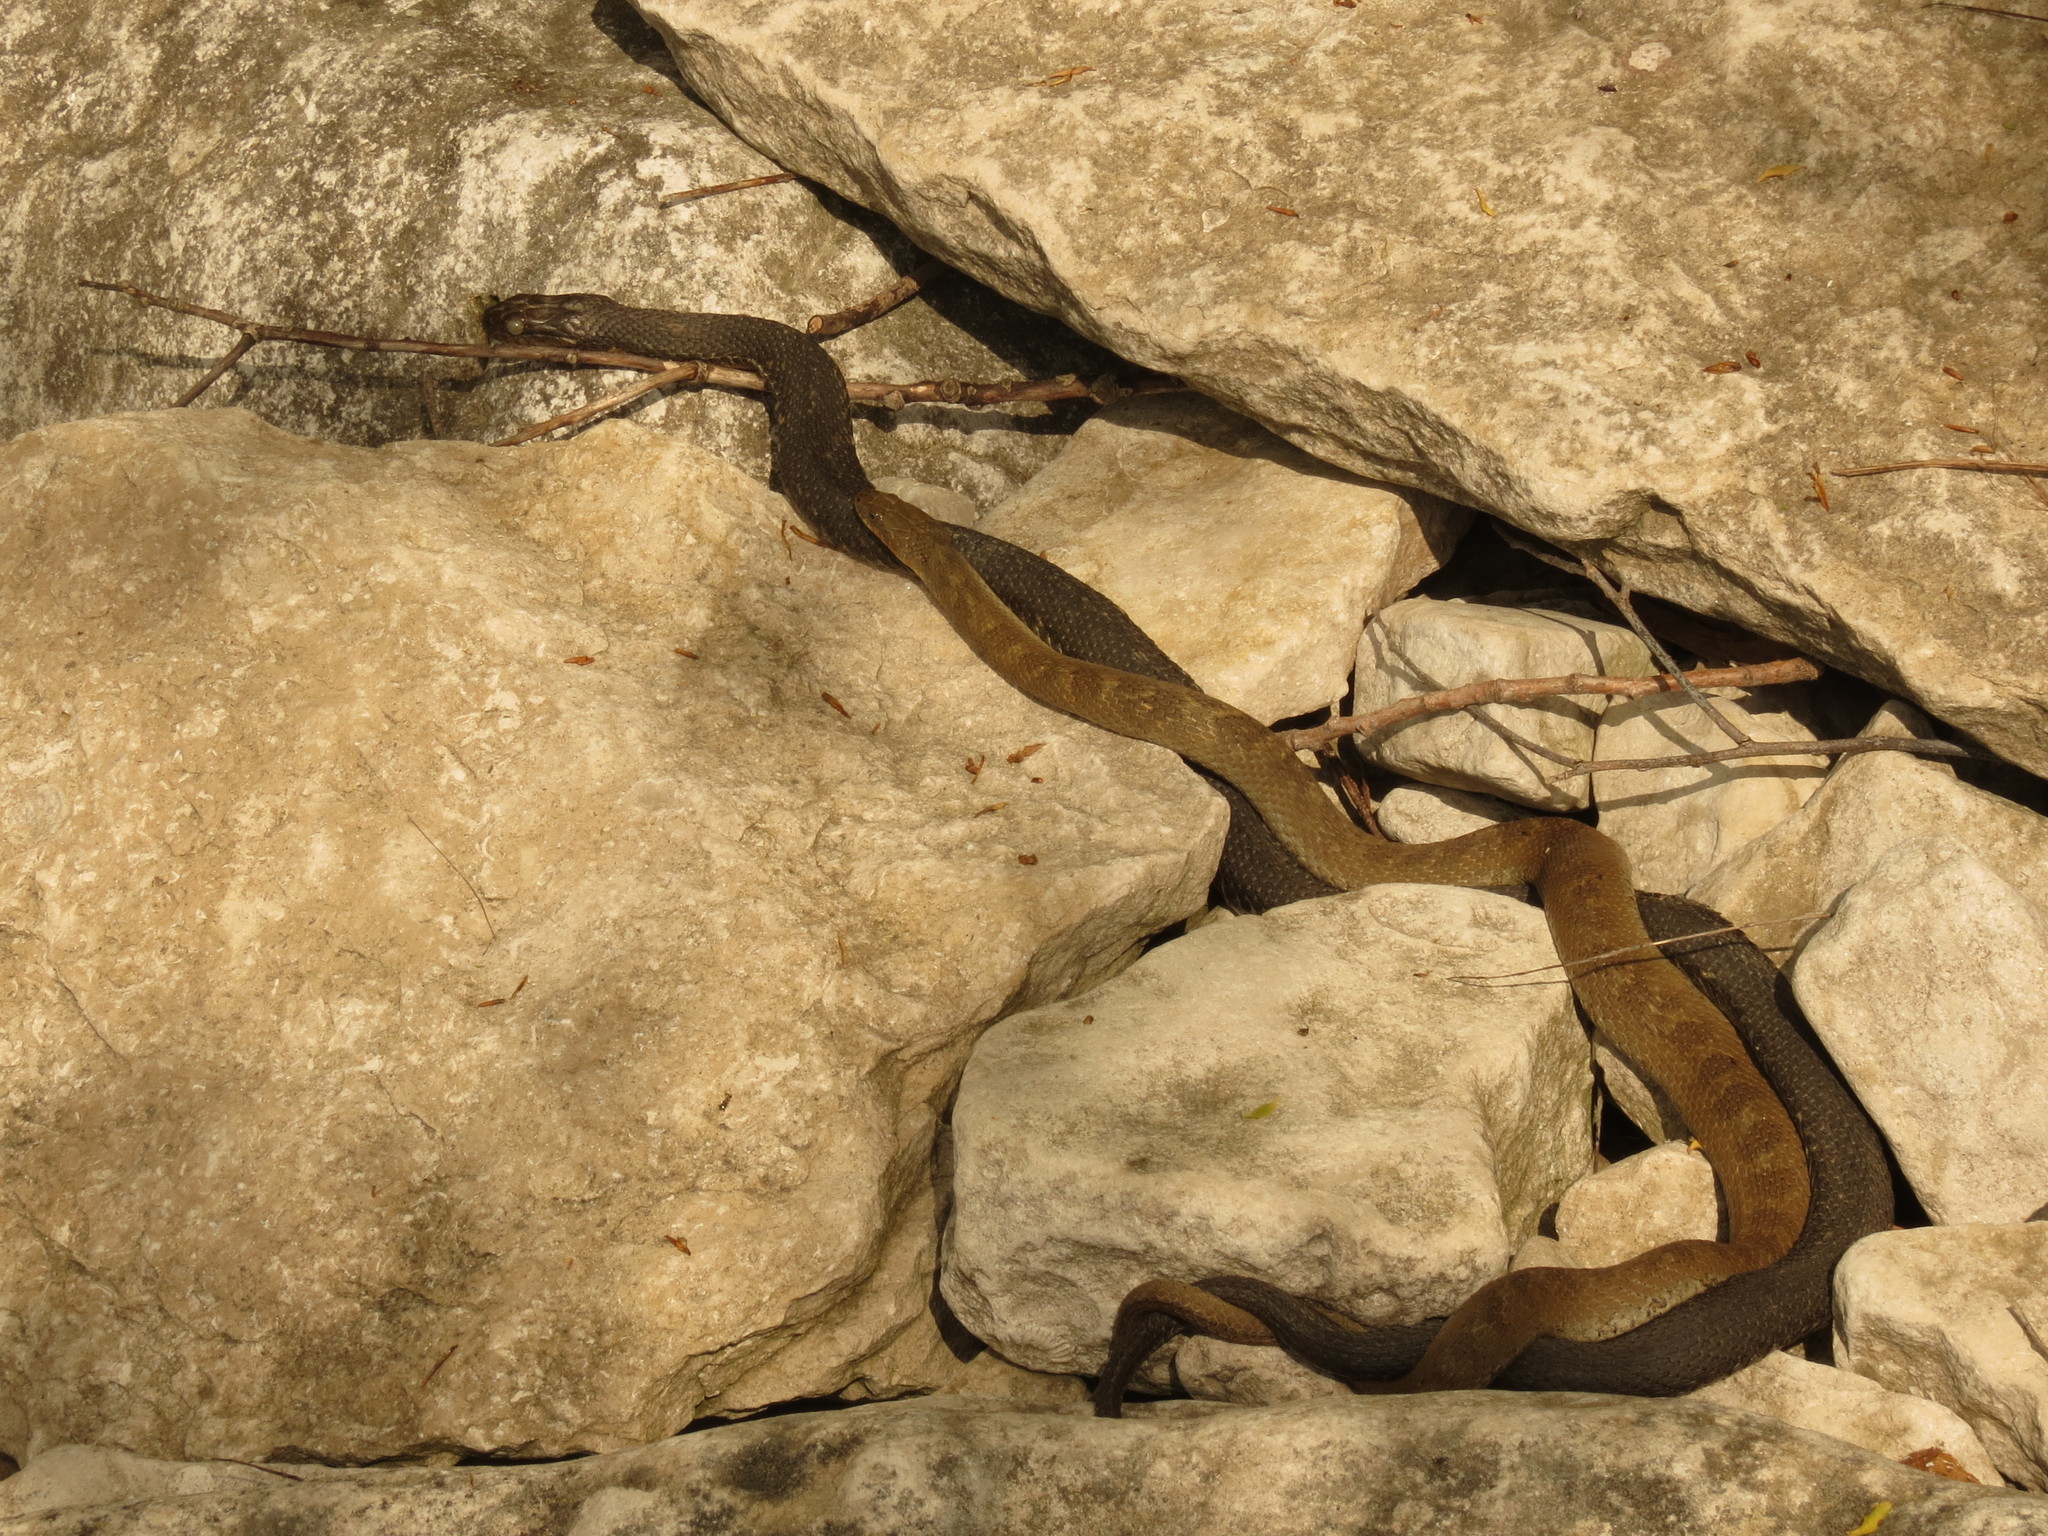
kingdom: Animalia
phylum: Chordata
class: Squamata
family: Colubridae
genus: Nerodia
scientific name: Nerodia sipedon
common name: Northern water snake
